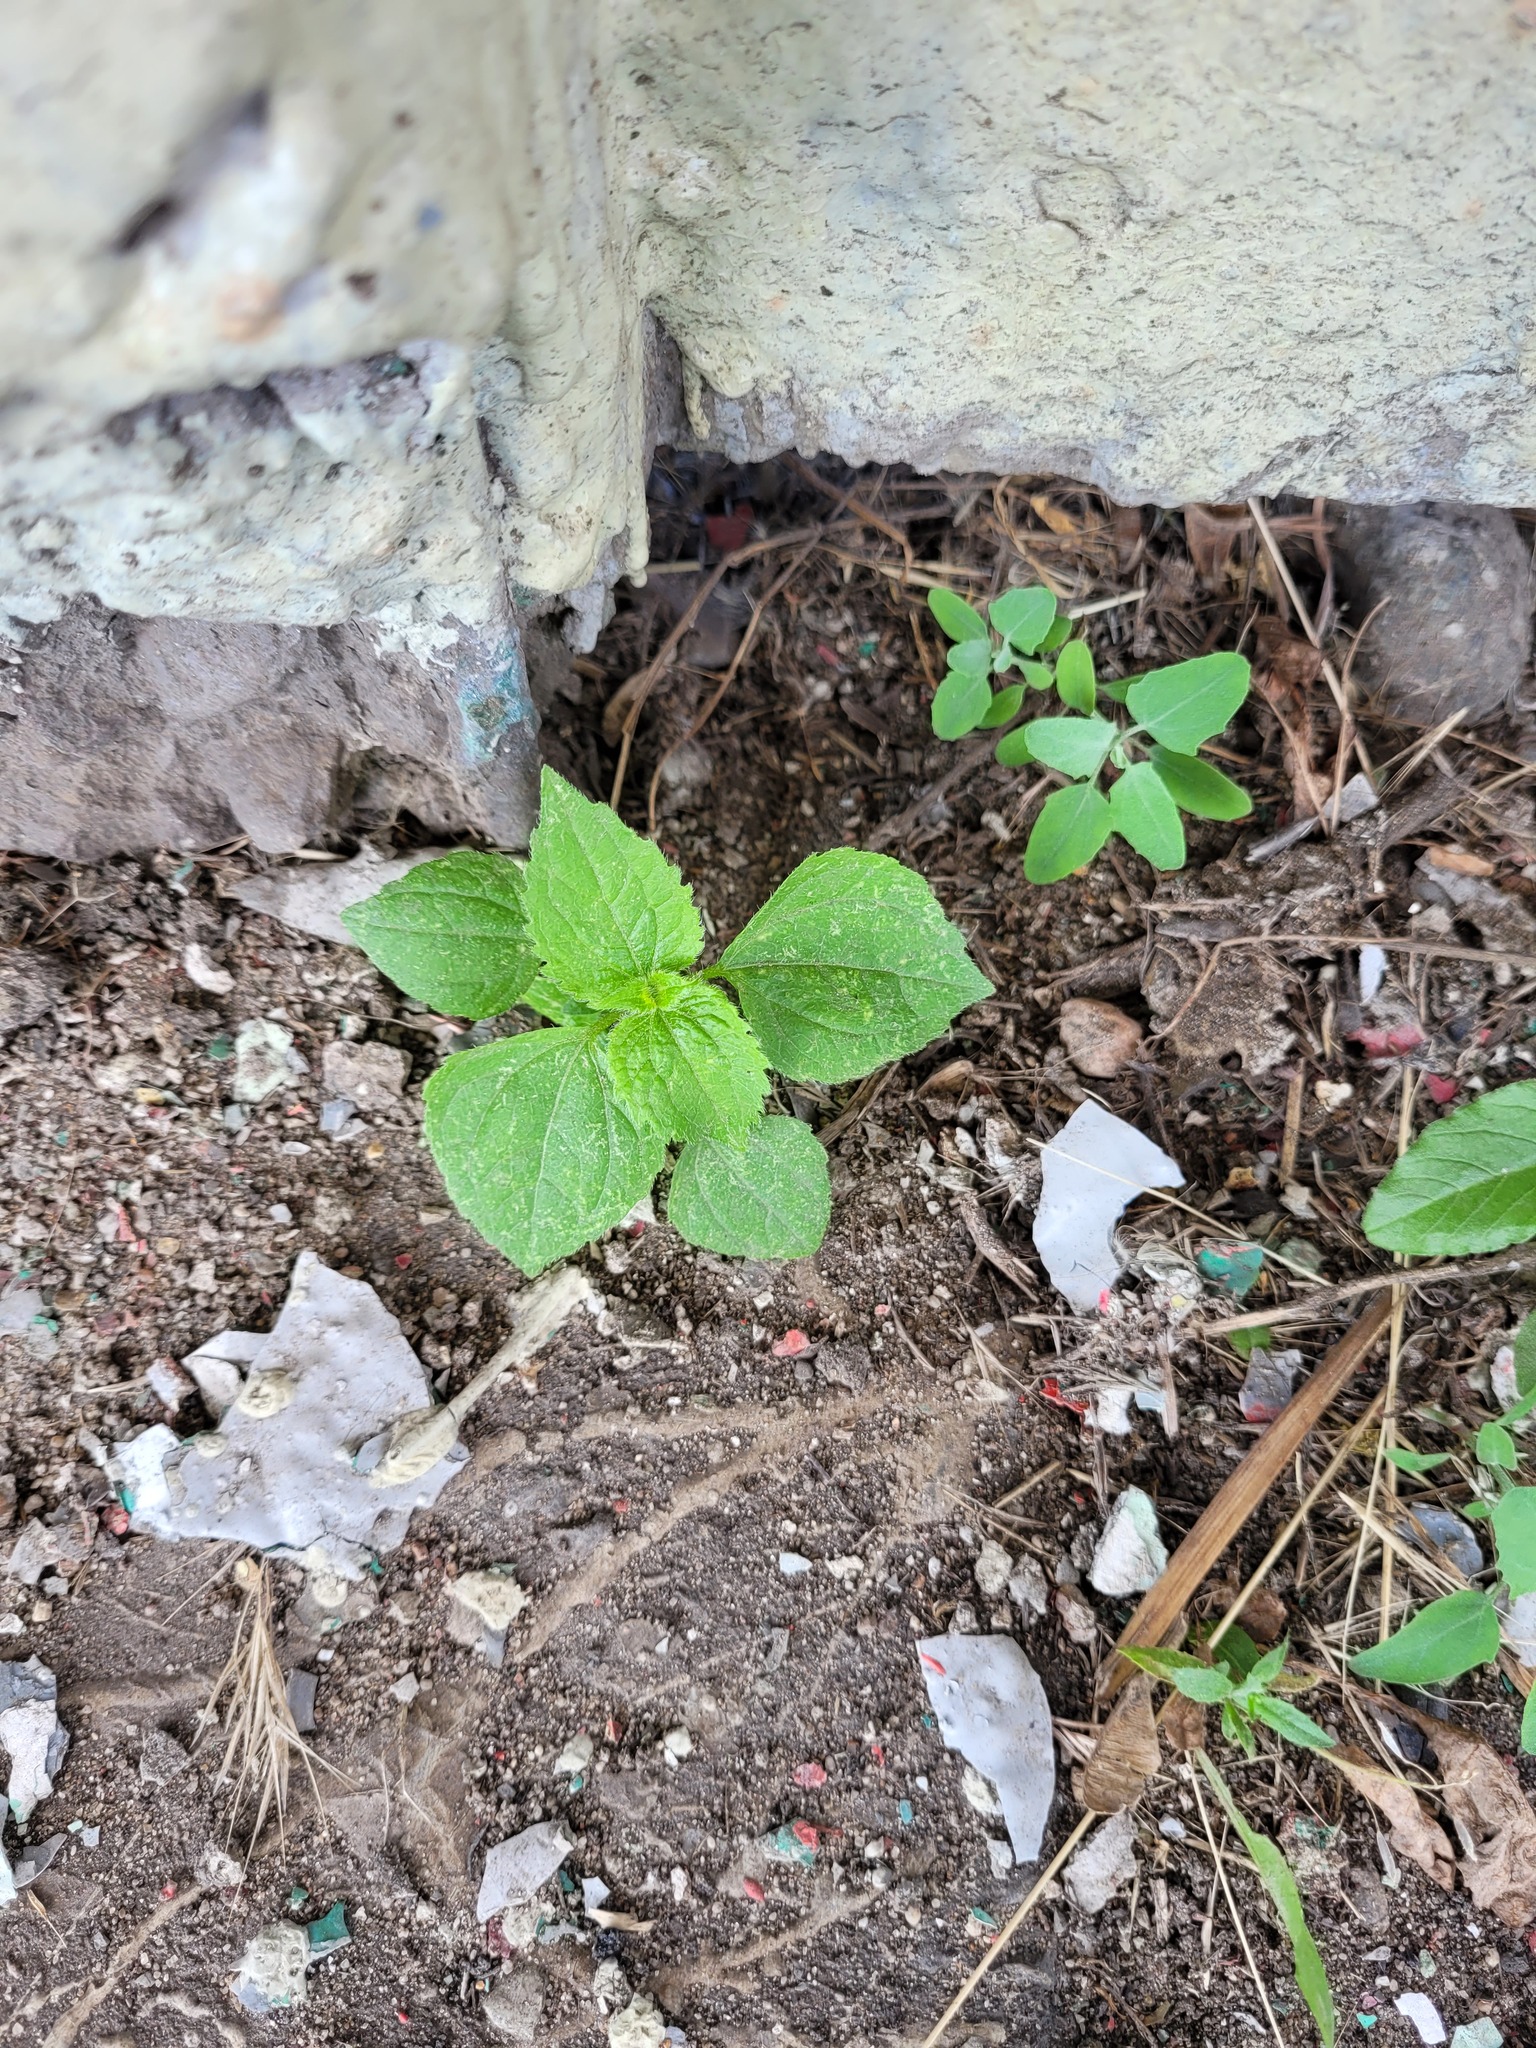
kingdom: Plantae
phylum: Tracheophyta
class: Magnoliopsida
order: Asterales
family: Asteraceae
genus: Galinsoga
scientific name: Galinsoga quadriradiata
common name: Shaggy soldier
